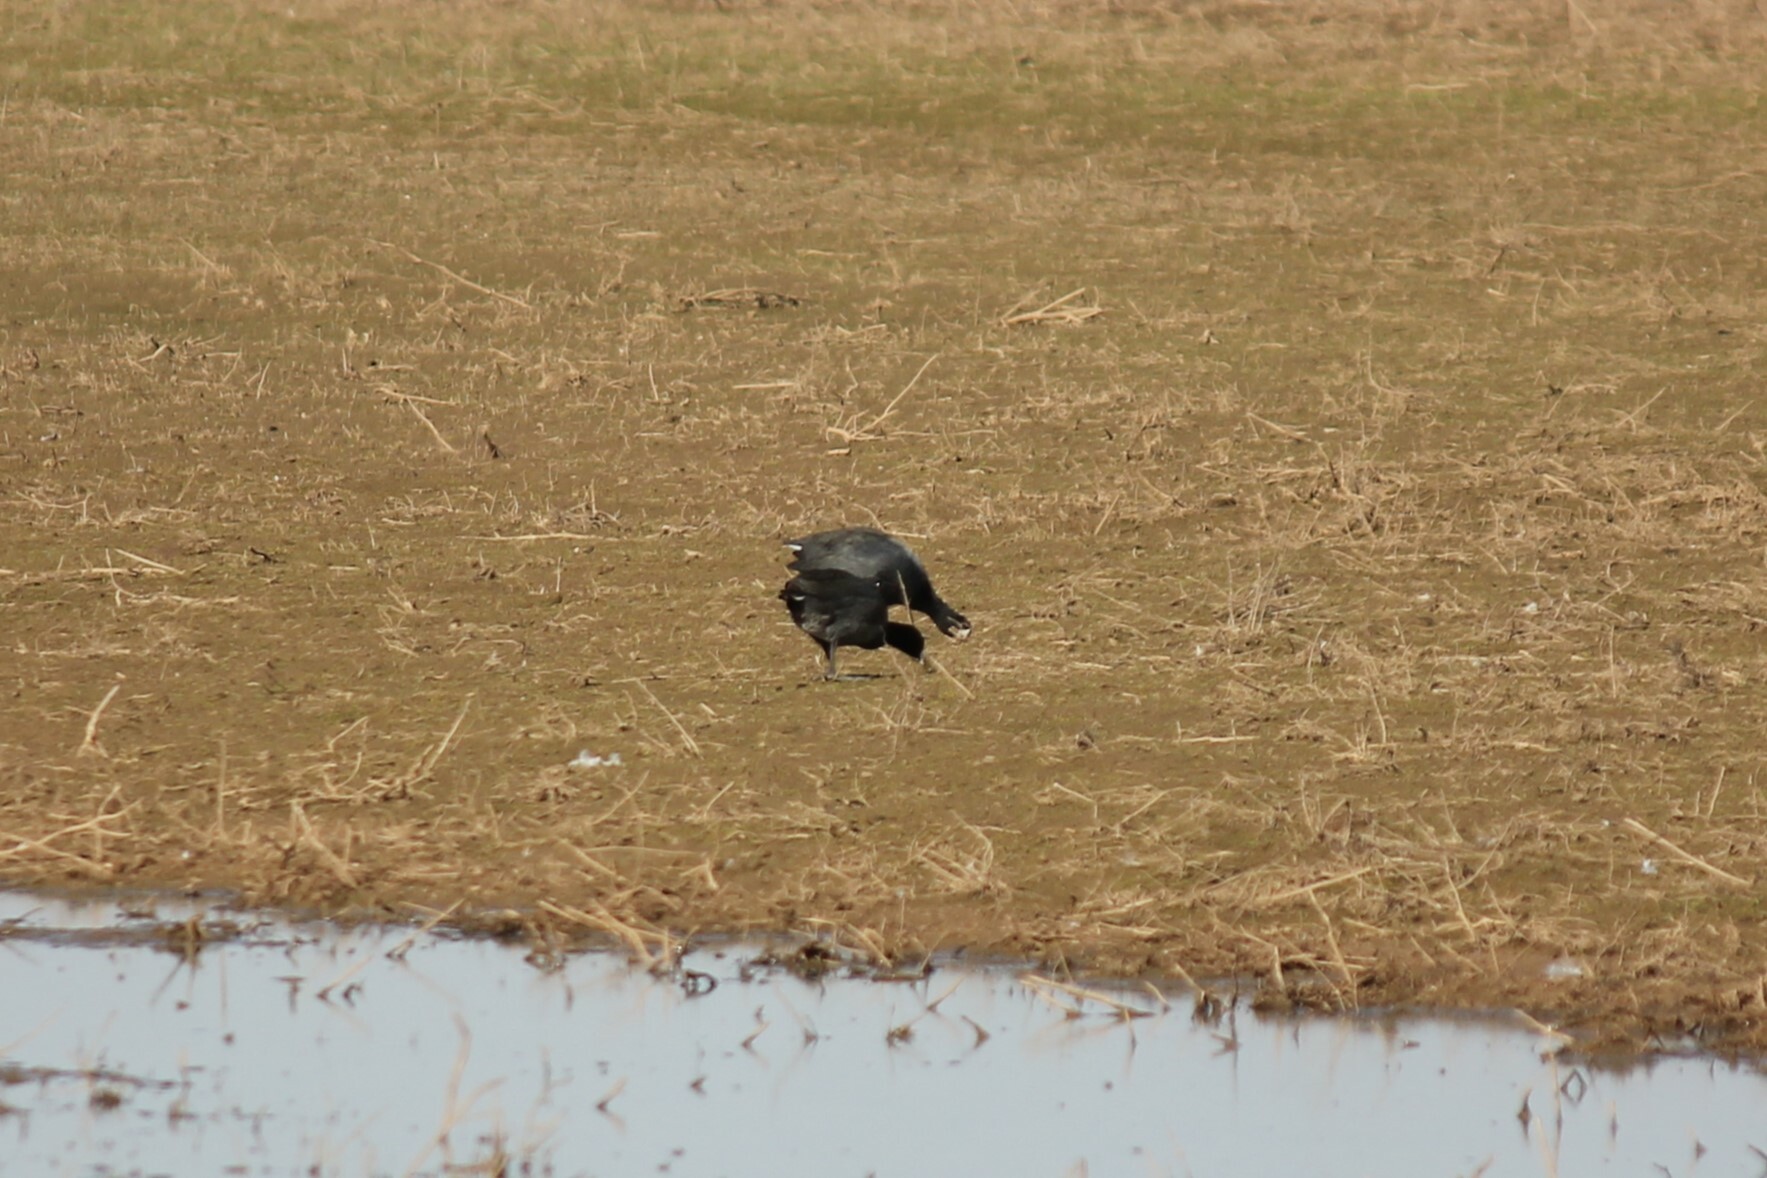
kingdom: Animalia
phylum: Chordata
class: Aves
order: Gruiformes
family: Rallidae
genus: Fulica
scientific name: Fulica americana
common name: American coot
